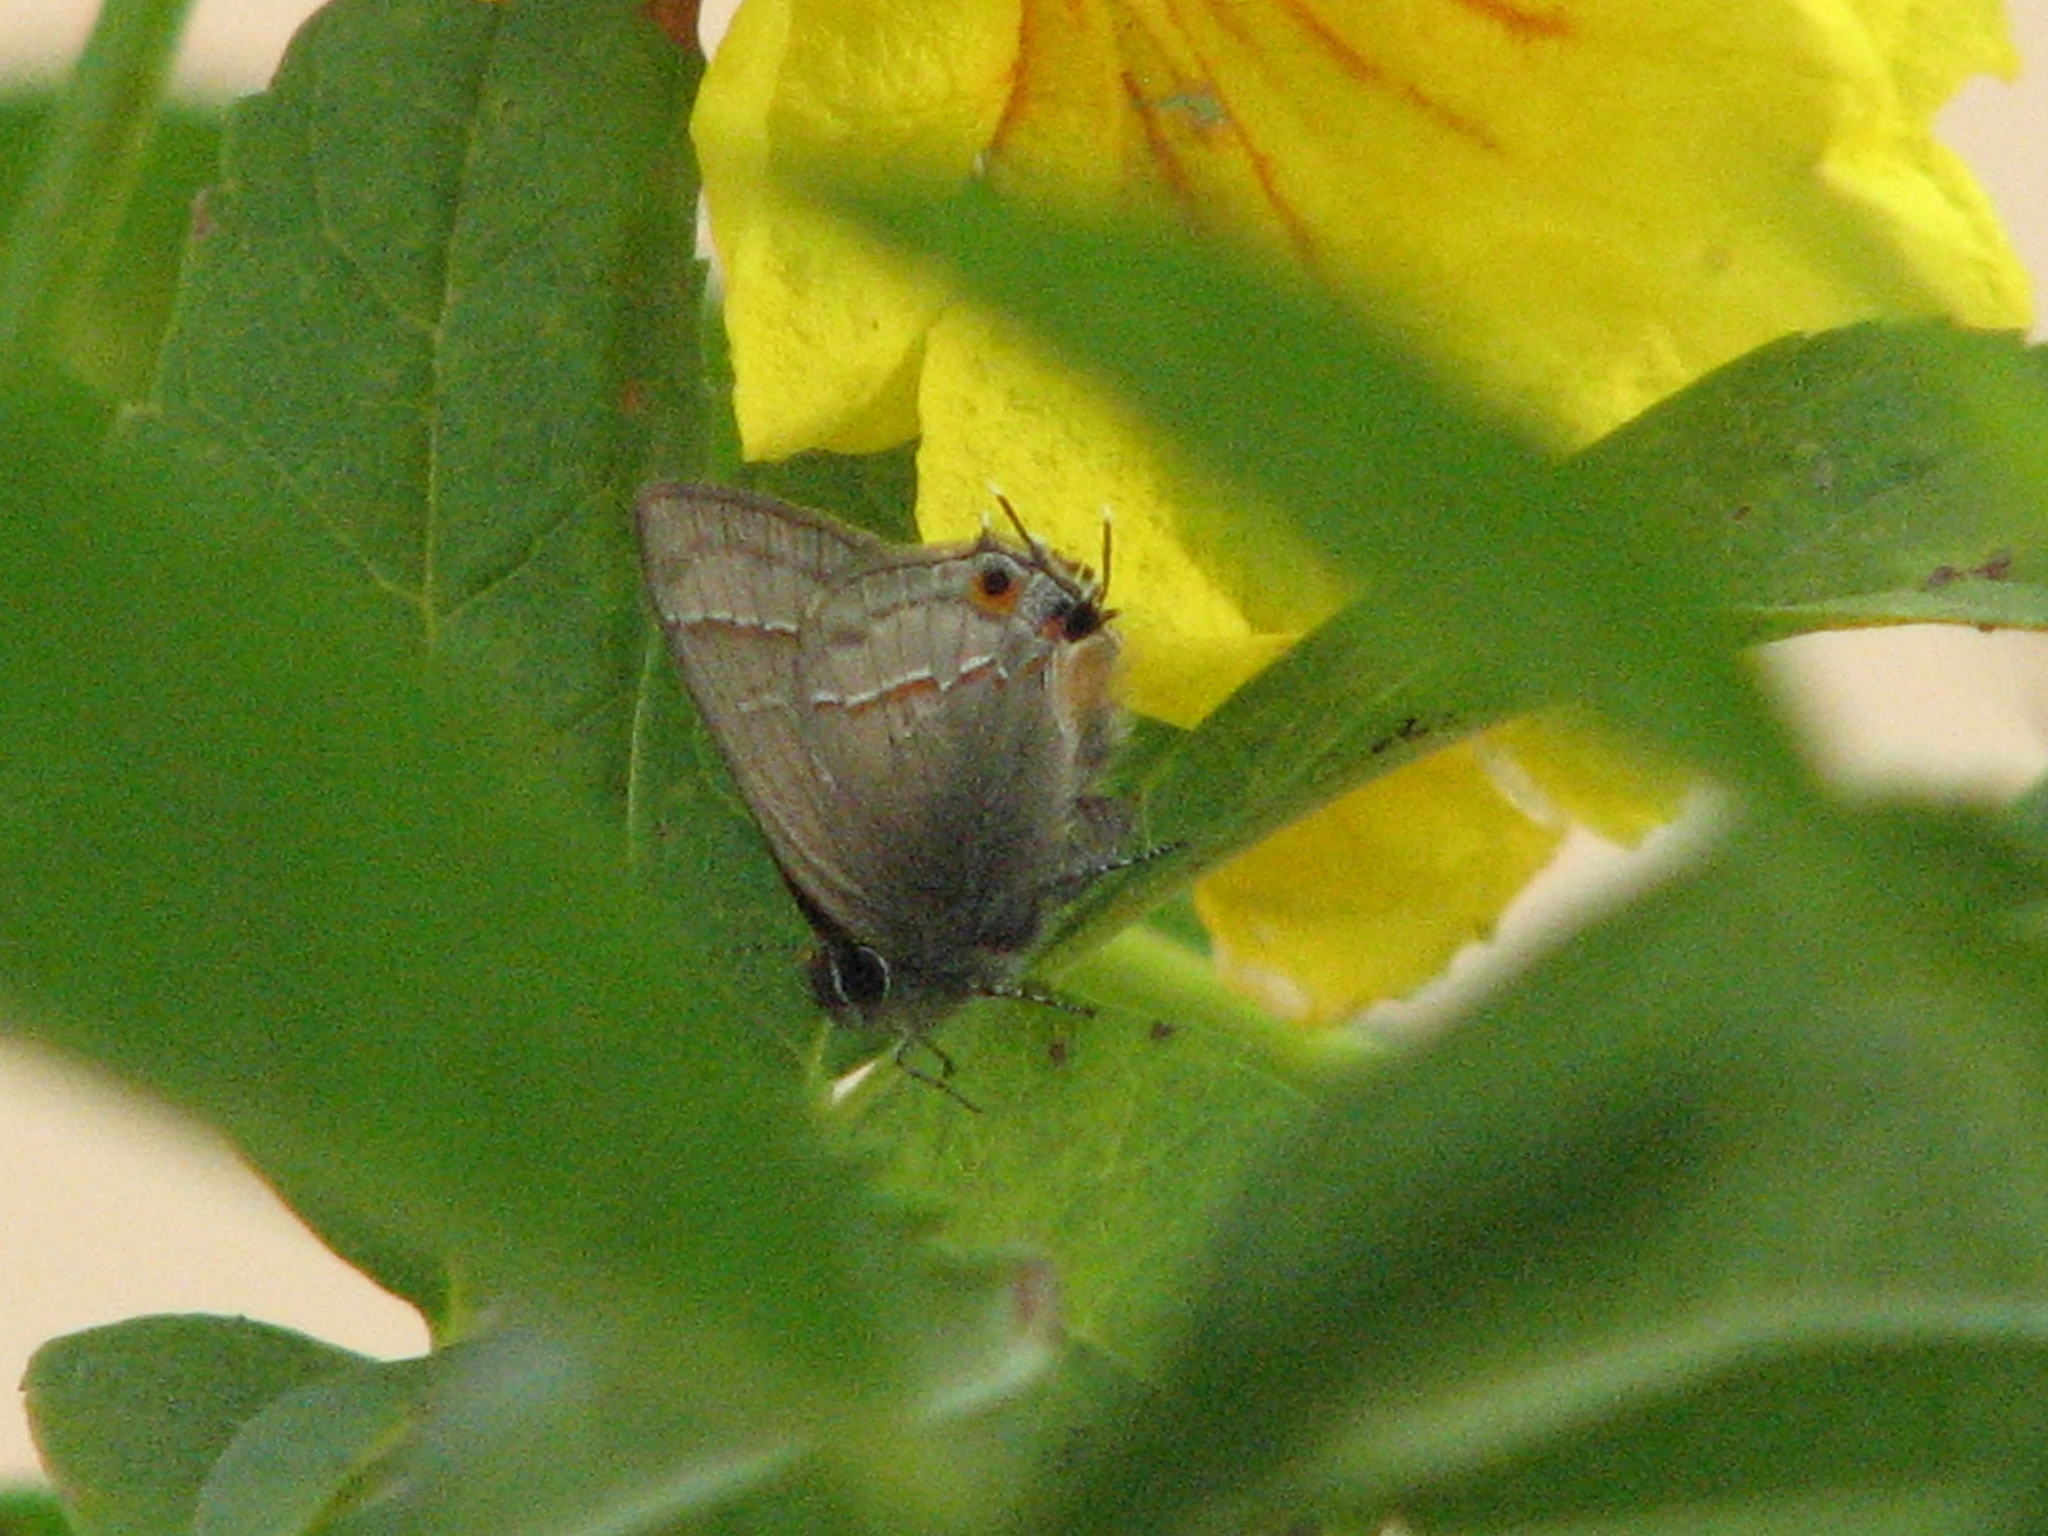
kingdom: Animalia
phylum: Arthropoda
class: Insecta
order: Lepidoptera
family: Lycaenidae
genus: Electrostrymon
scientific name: Electrostrymon endymion
